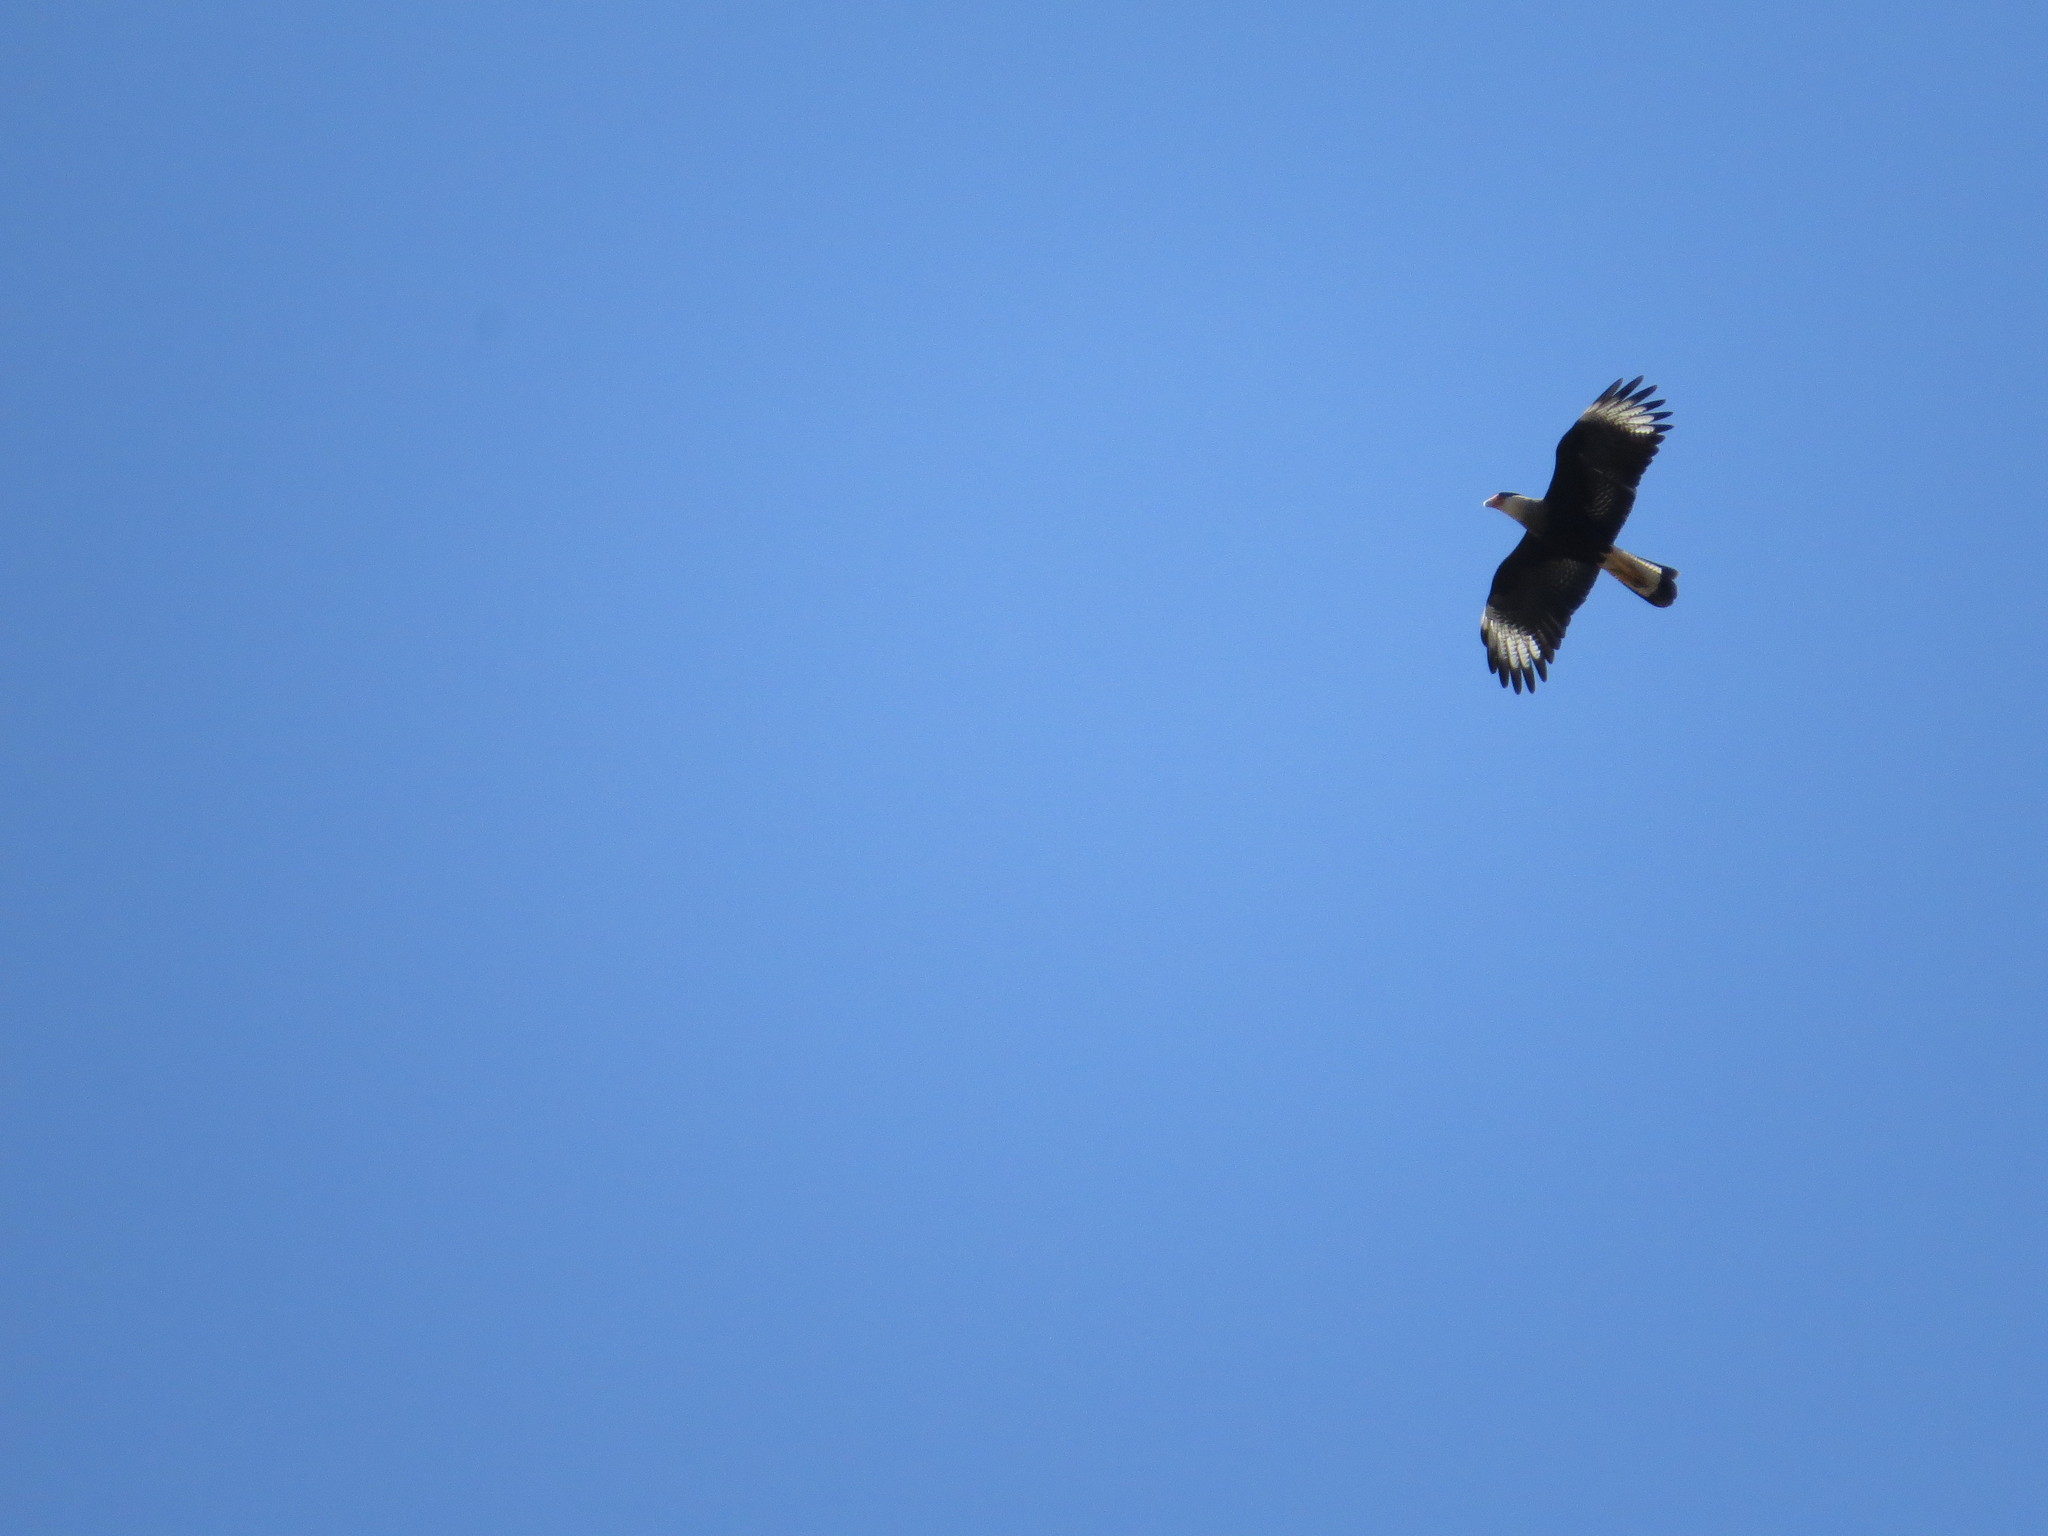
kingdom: Animalia
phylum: Chordata
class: Aves
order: Falconiformes
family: Falconidae
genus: Caracara
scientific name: Caracara plancus
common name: Southern caracara
